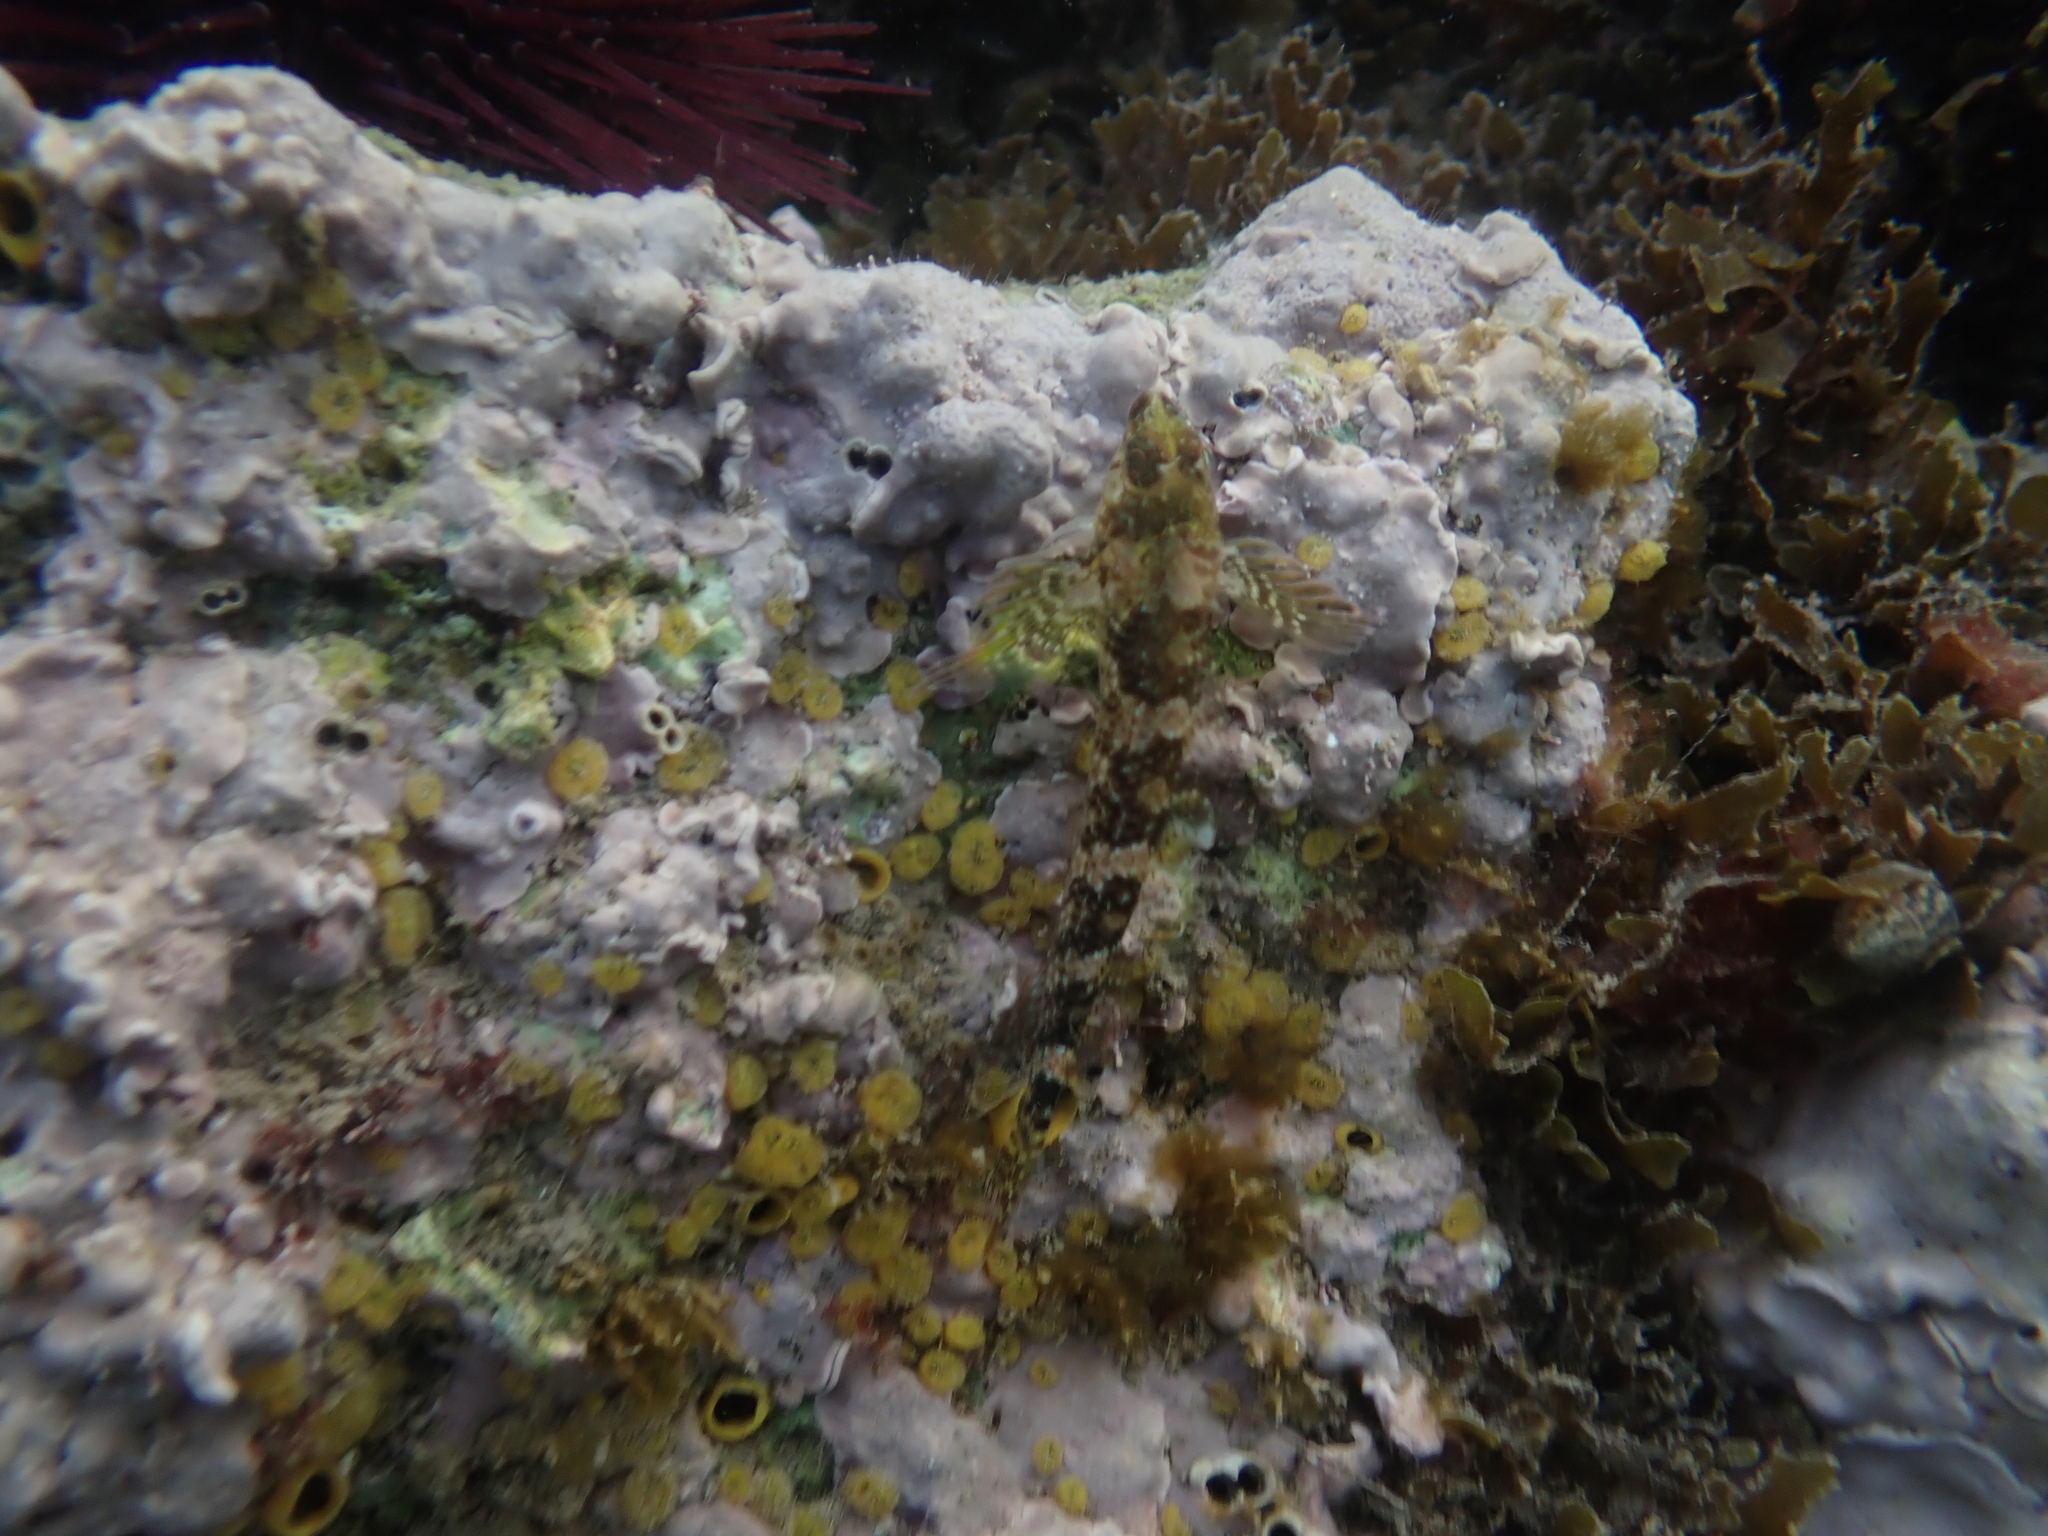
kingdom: Animalia
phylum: Chordata
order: Perciformes
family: Tripterygiidae
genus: Tripterygion
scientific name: Tripterygion tripteronotum
